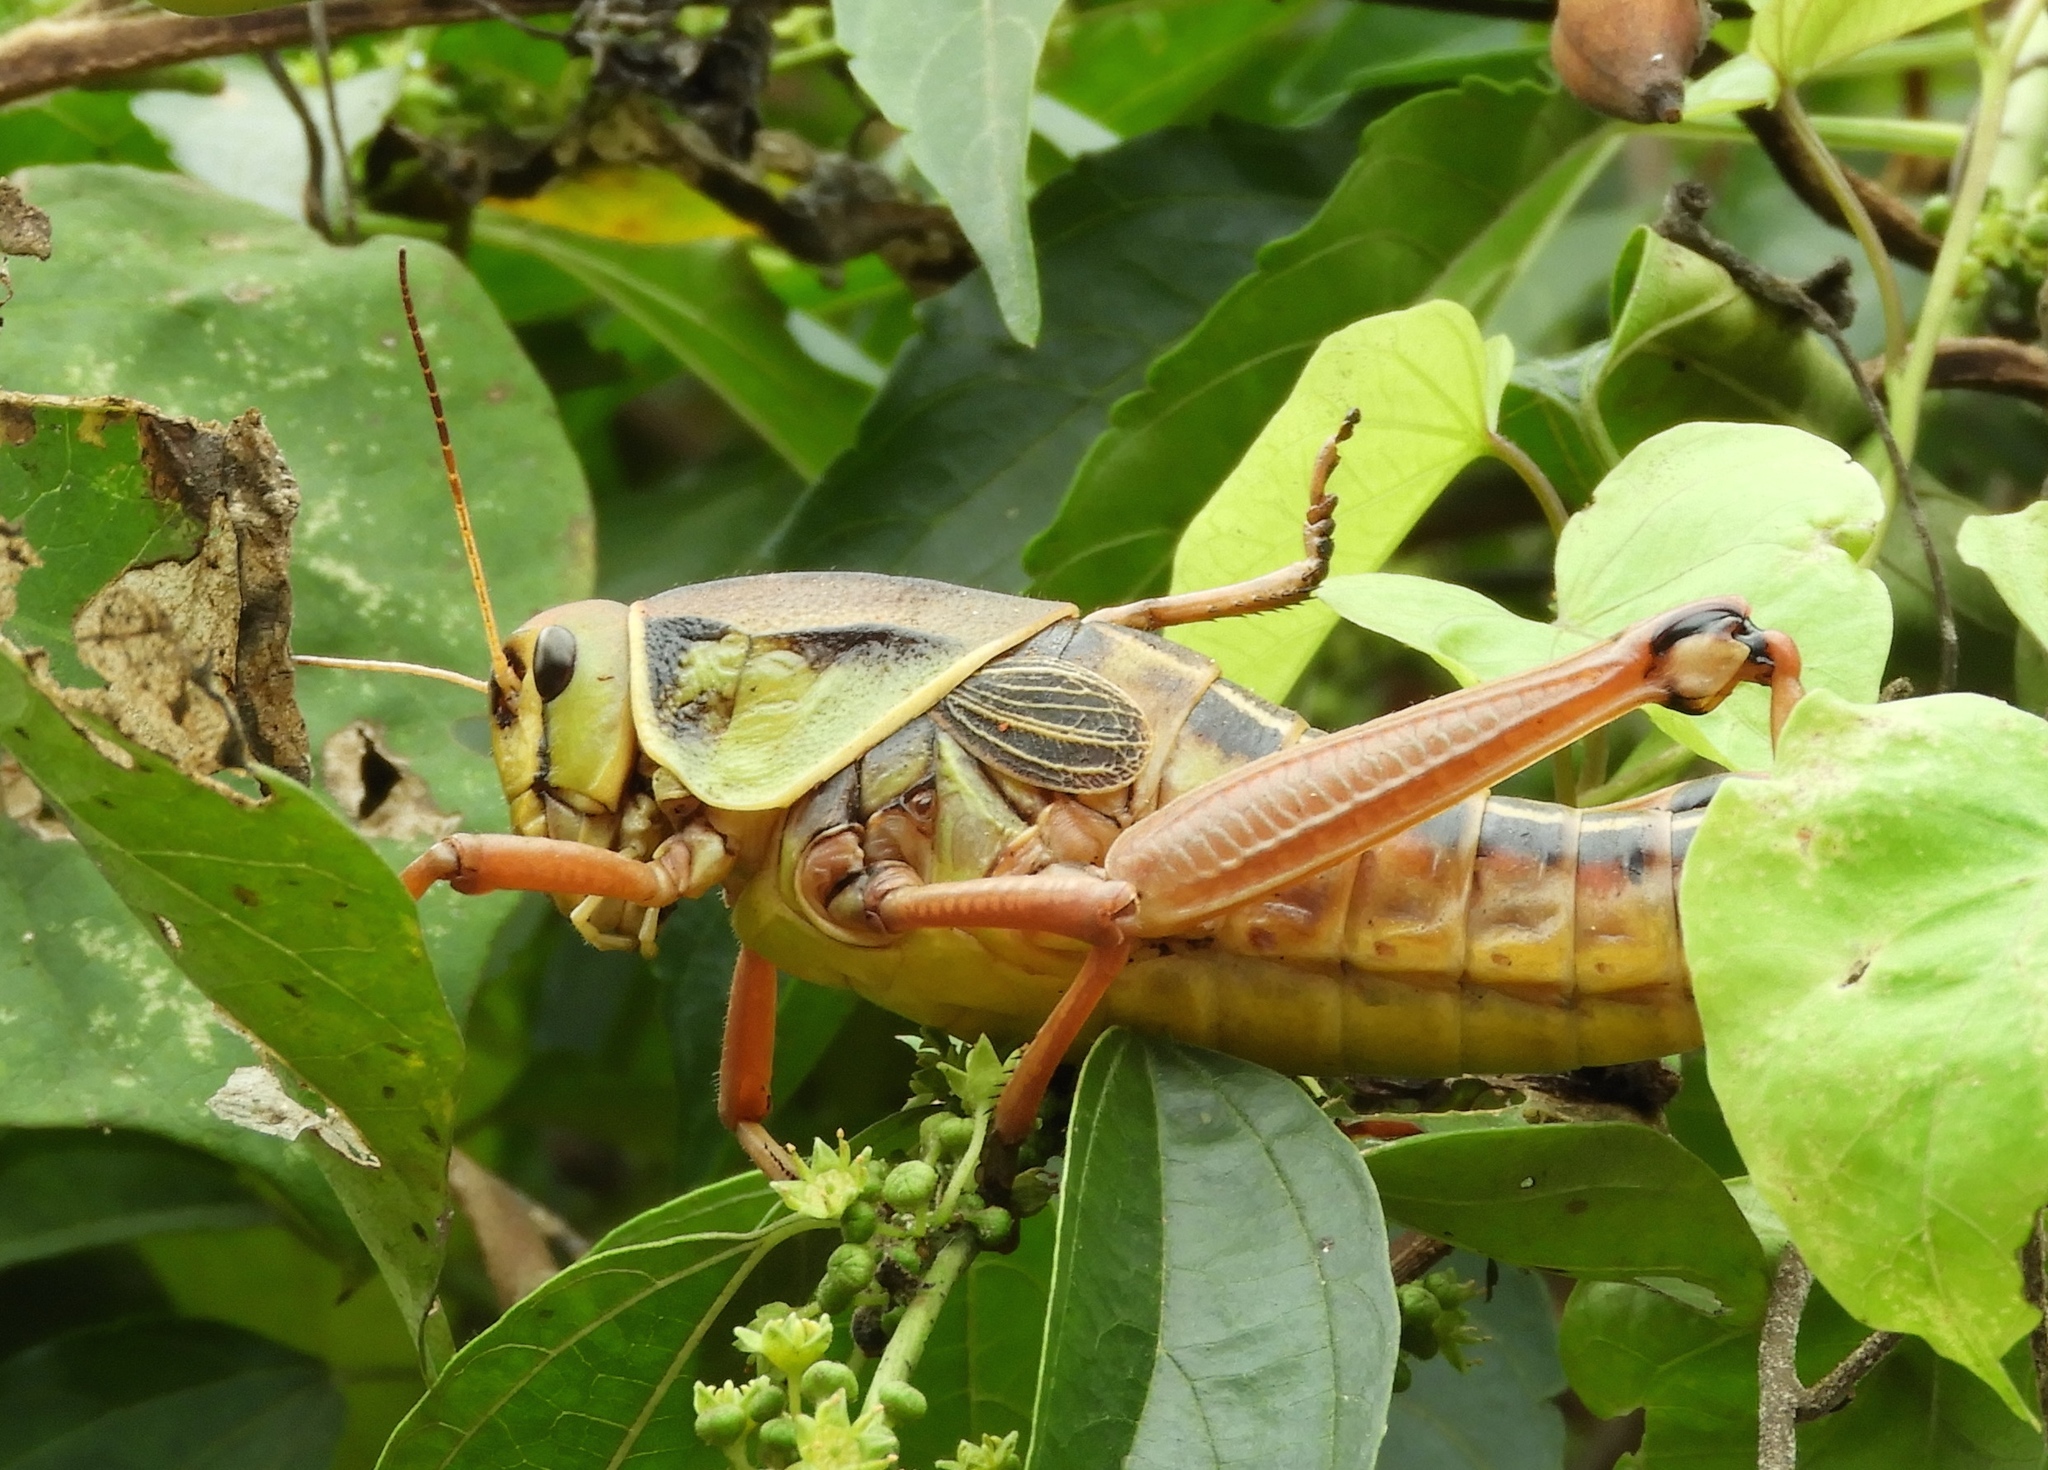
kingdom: Animalia
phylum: Arthropoda
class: Insecta
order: Orthoptera
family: Romaleidae
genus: Brachystola
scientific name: Brachystola
